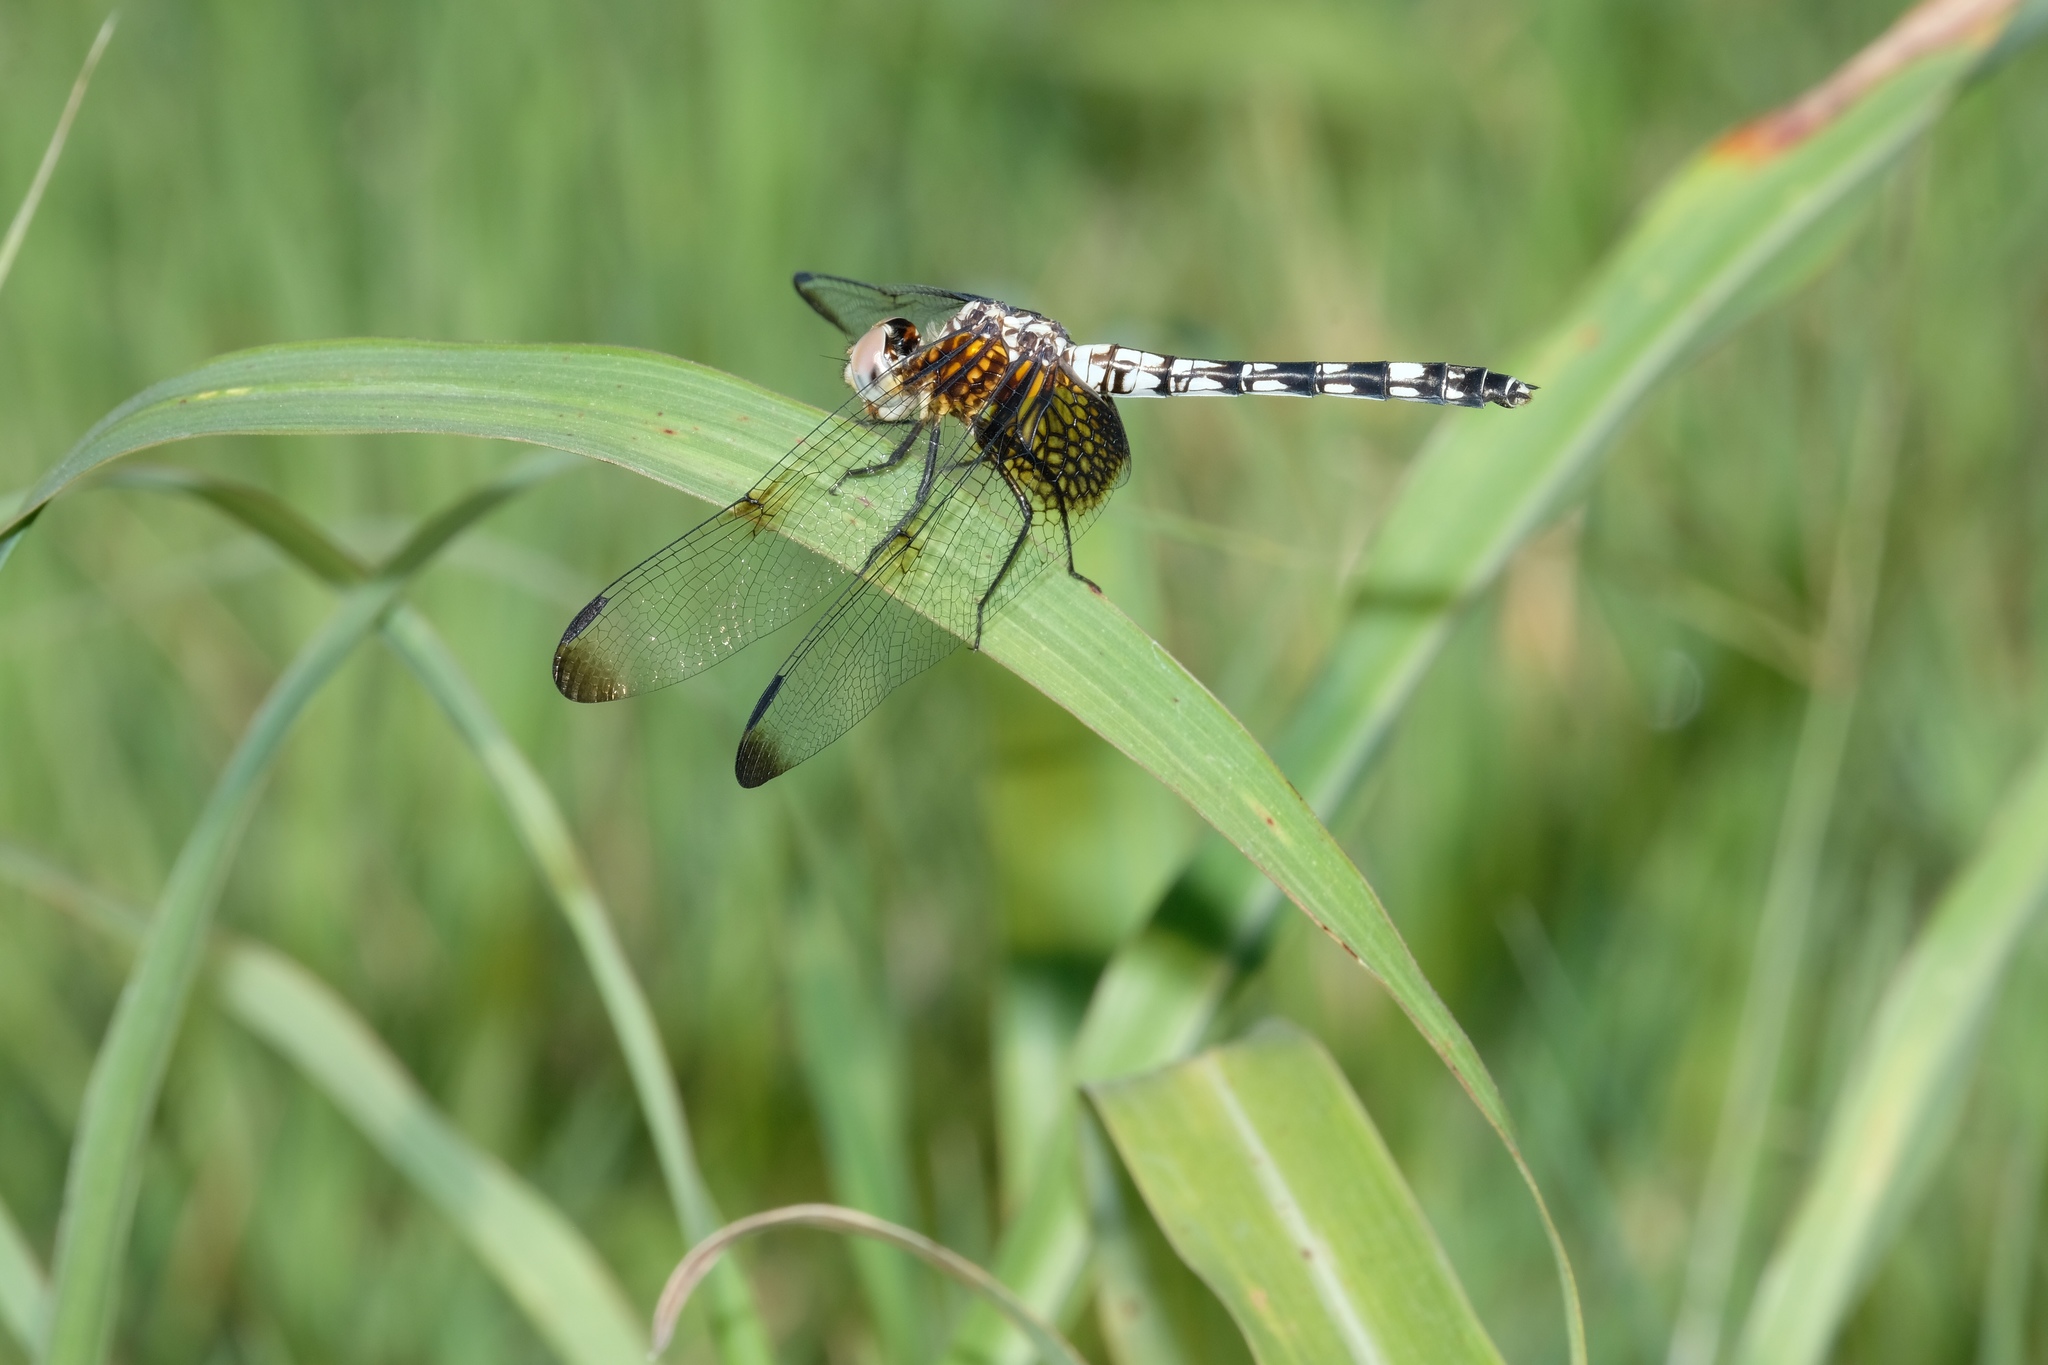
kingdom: Animalia
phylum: Arthropoda
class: Insecta
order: Odonata
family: Libellulidae
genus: Dythemis
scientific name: Dythemis fugax
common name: Checkered setwing
